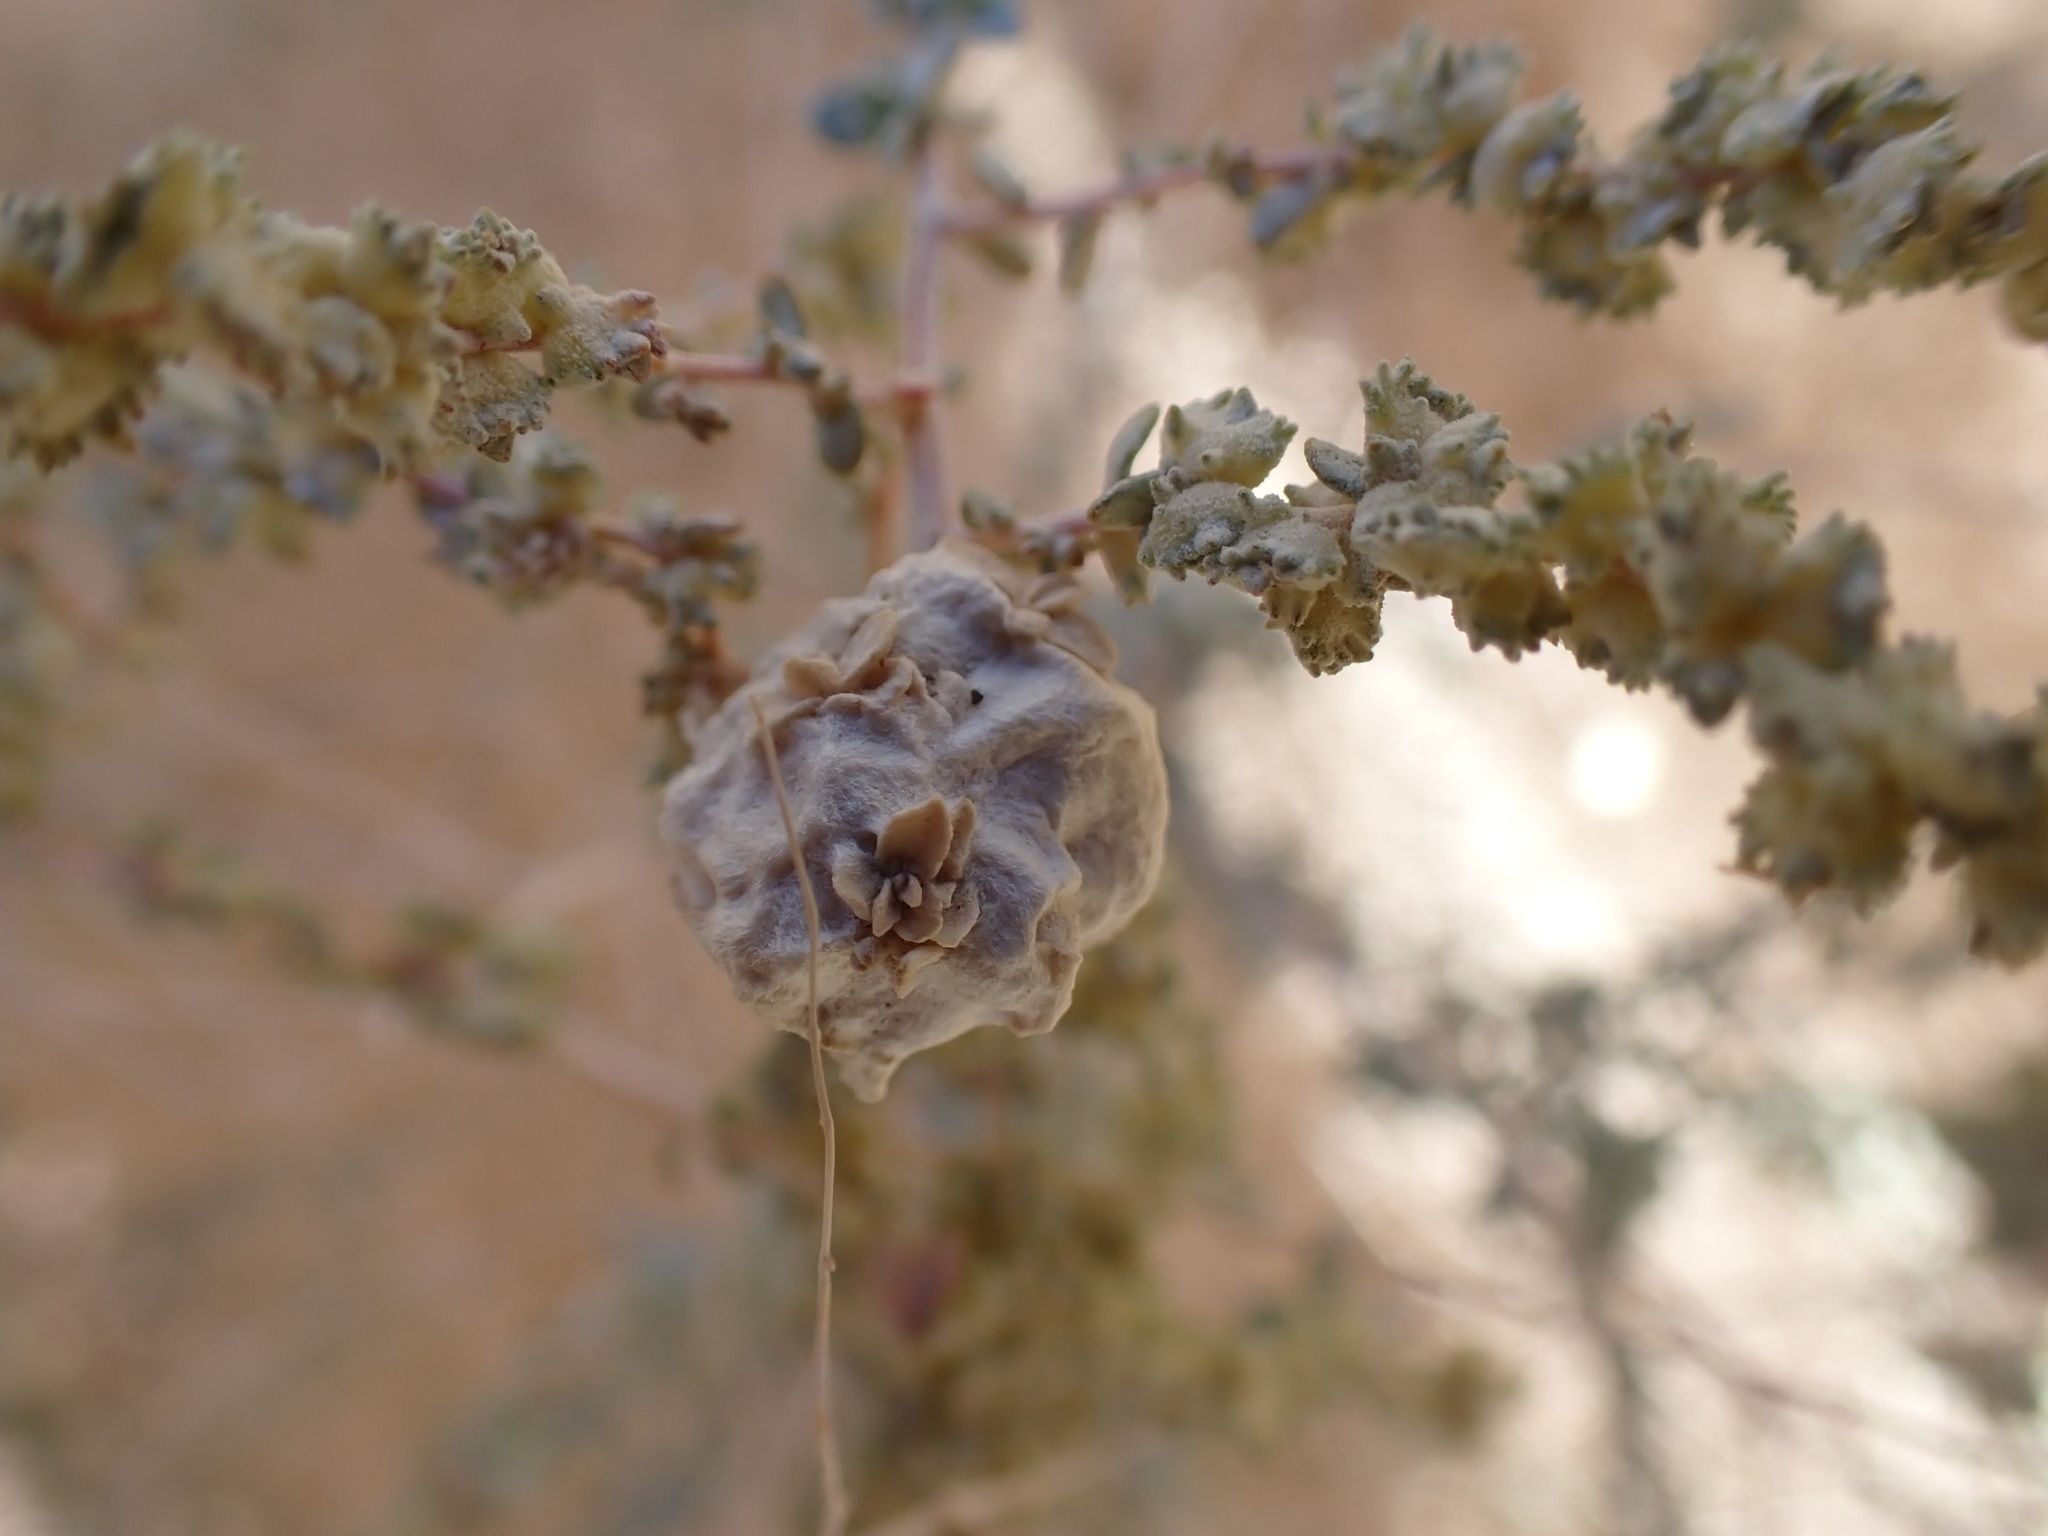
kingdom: Animalia
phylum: Arthropoda
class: Insecta
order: Diptera
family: Cecidomyiidae
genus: Asphondylia
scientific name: Asphondylia floccosa
